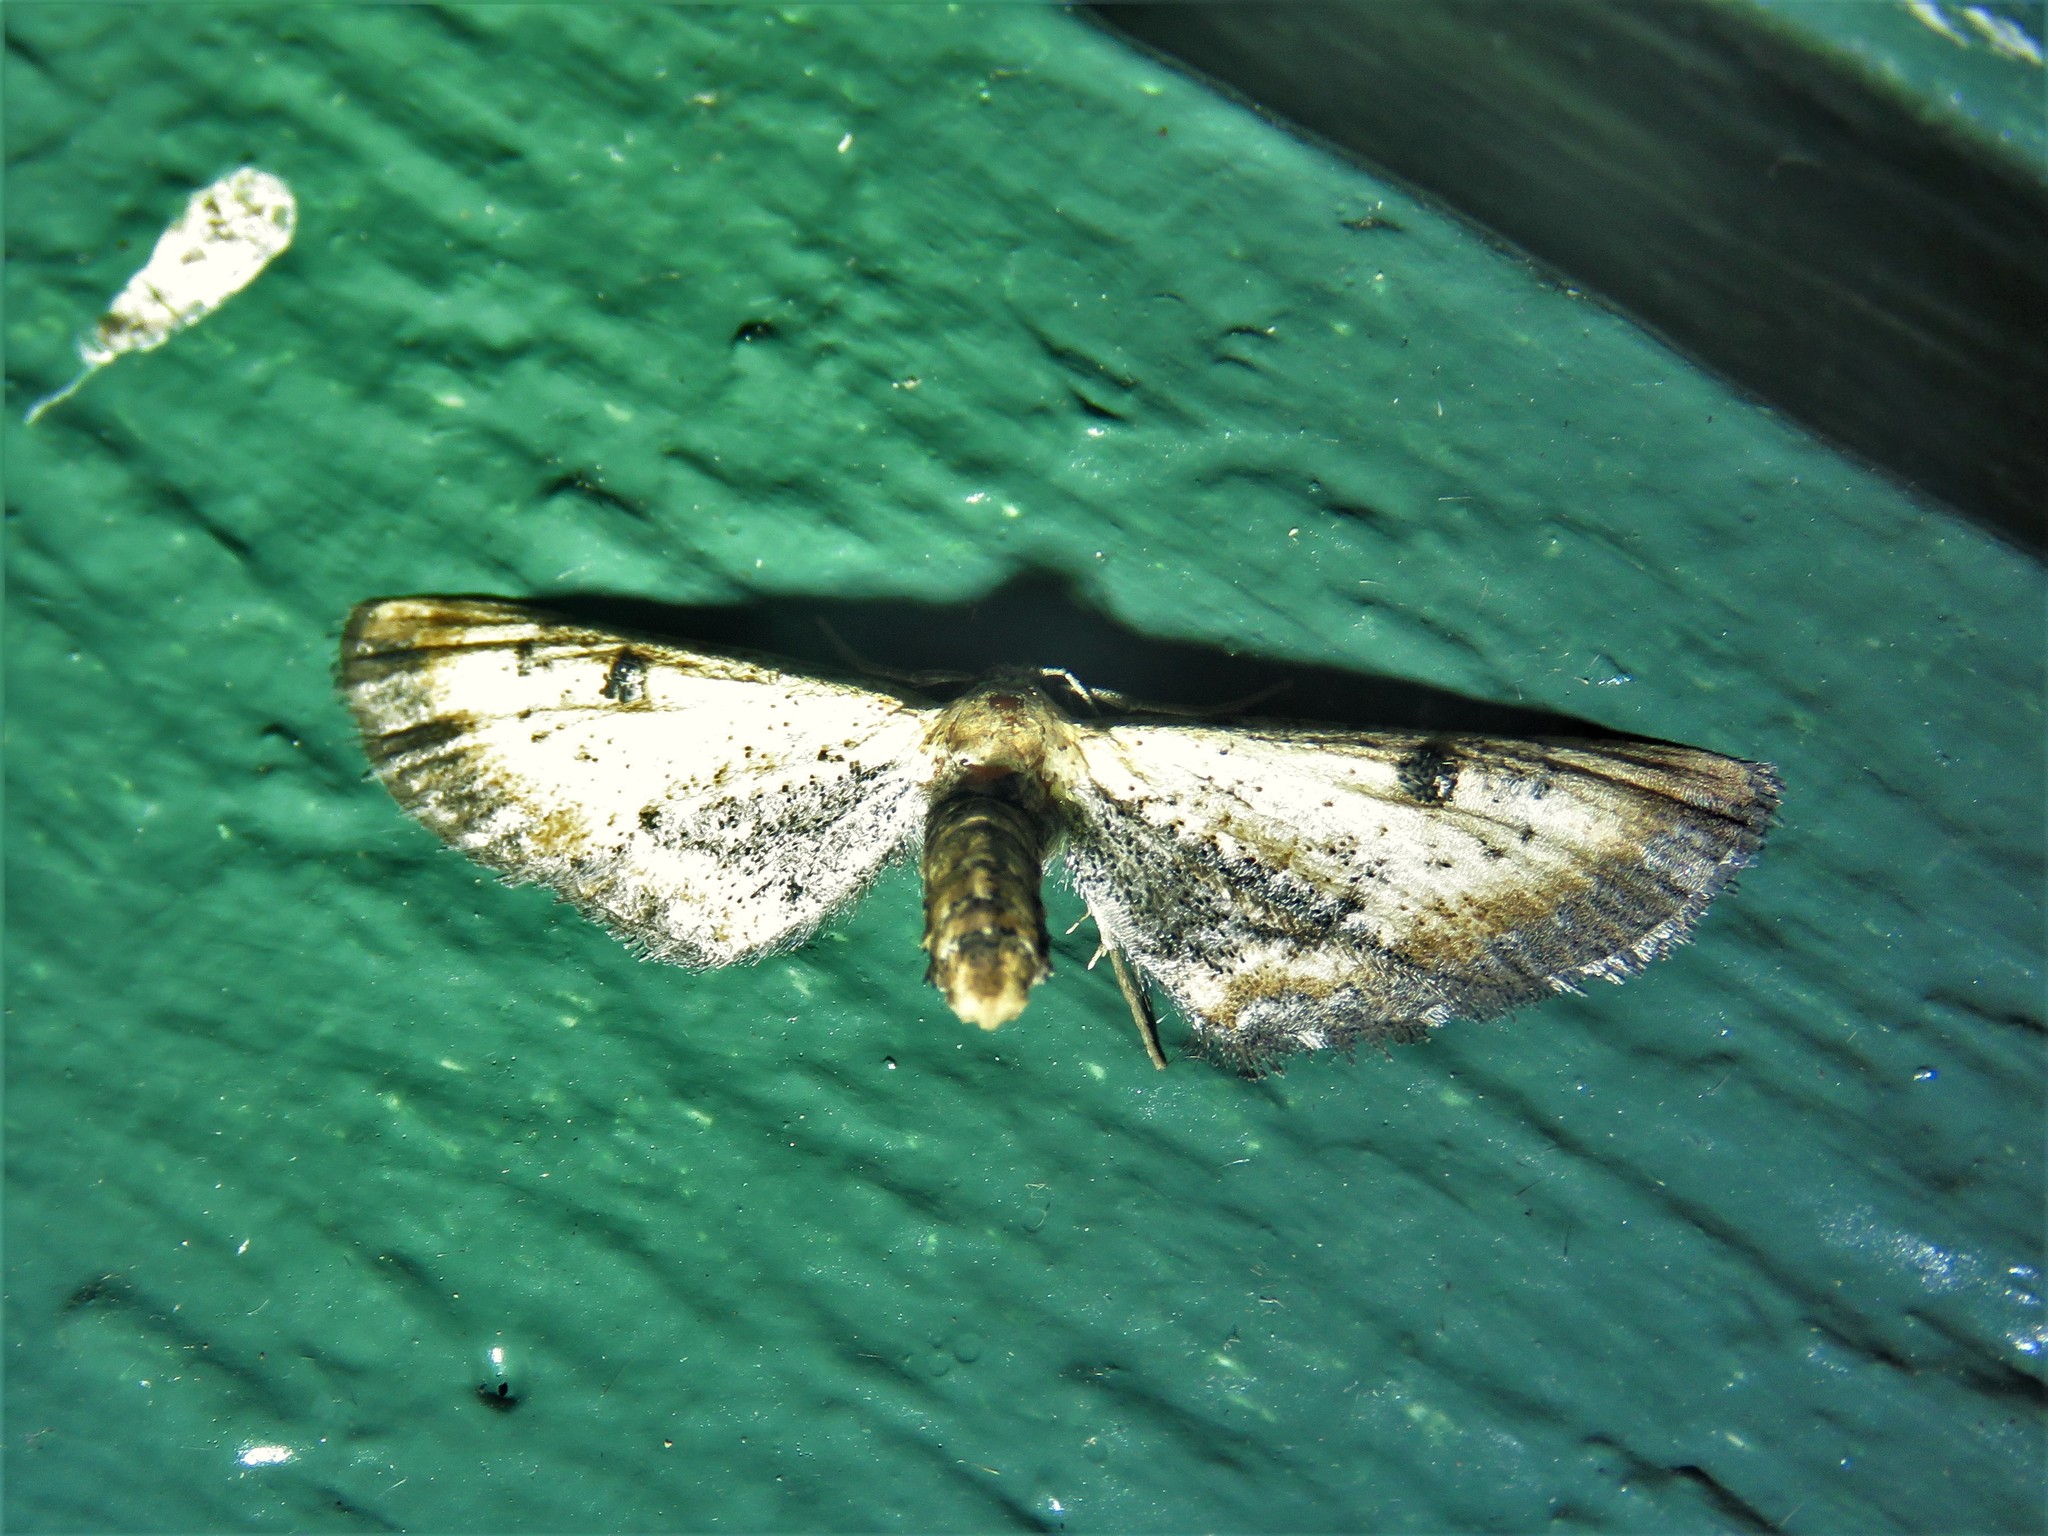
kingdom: Animalia
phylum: Arthropoda
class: Insecta
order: Lepidoptera
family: Geometridae
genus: Tornos
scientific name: Tornos scolopacinaria
